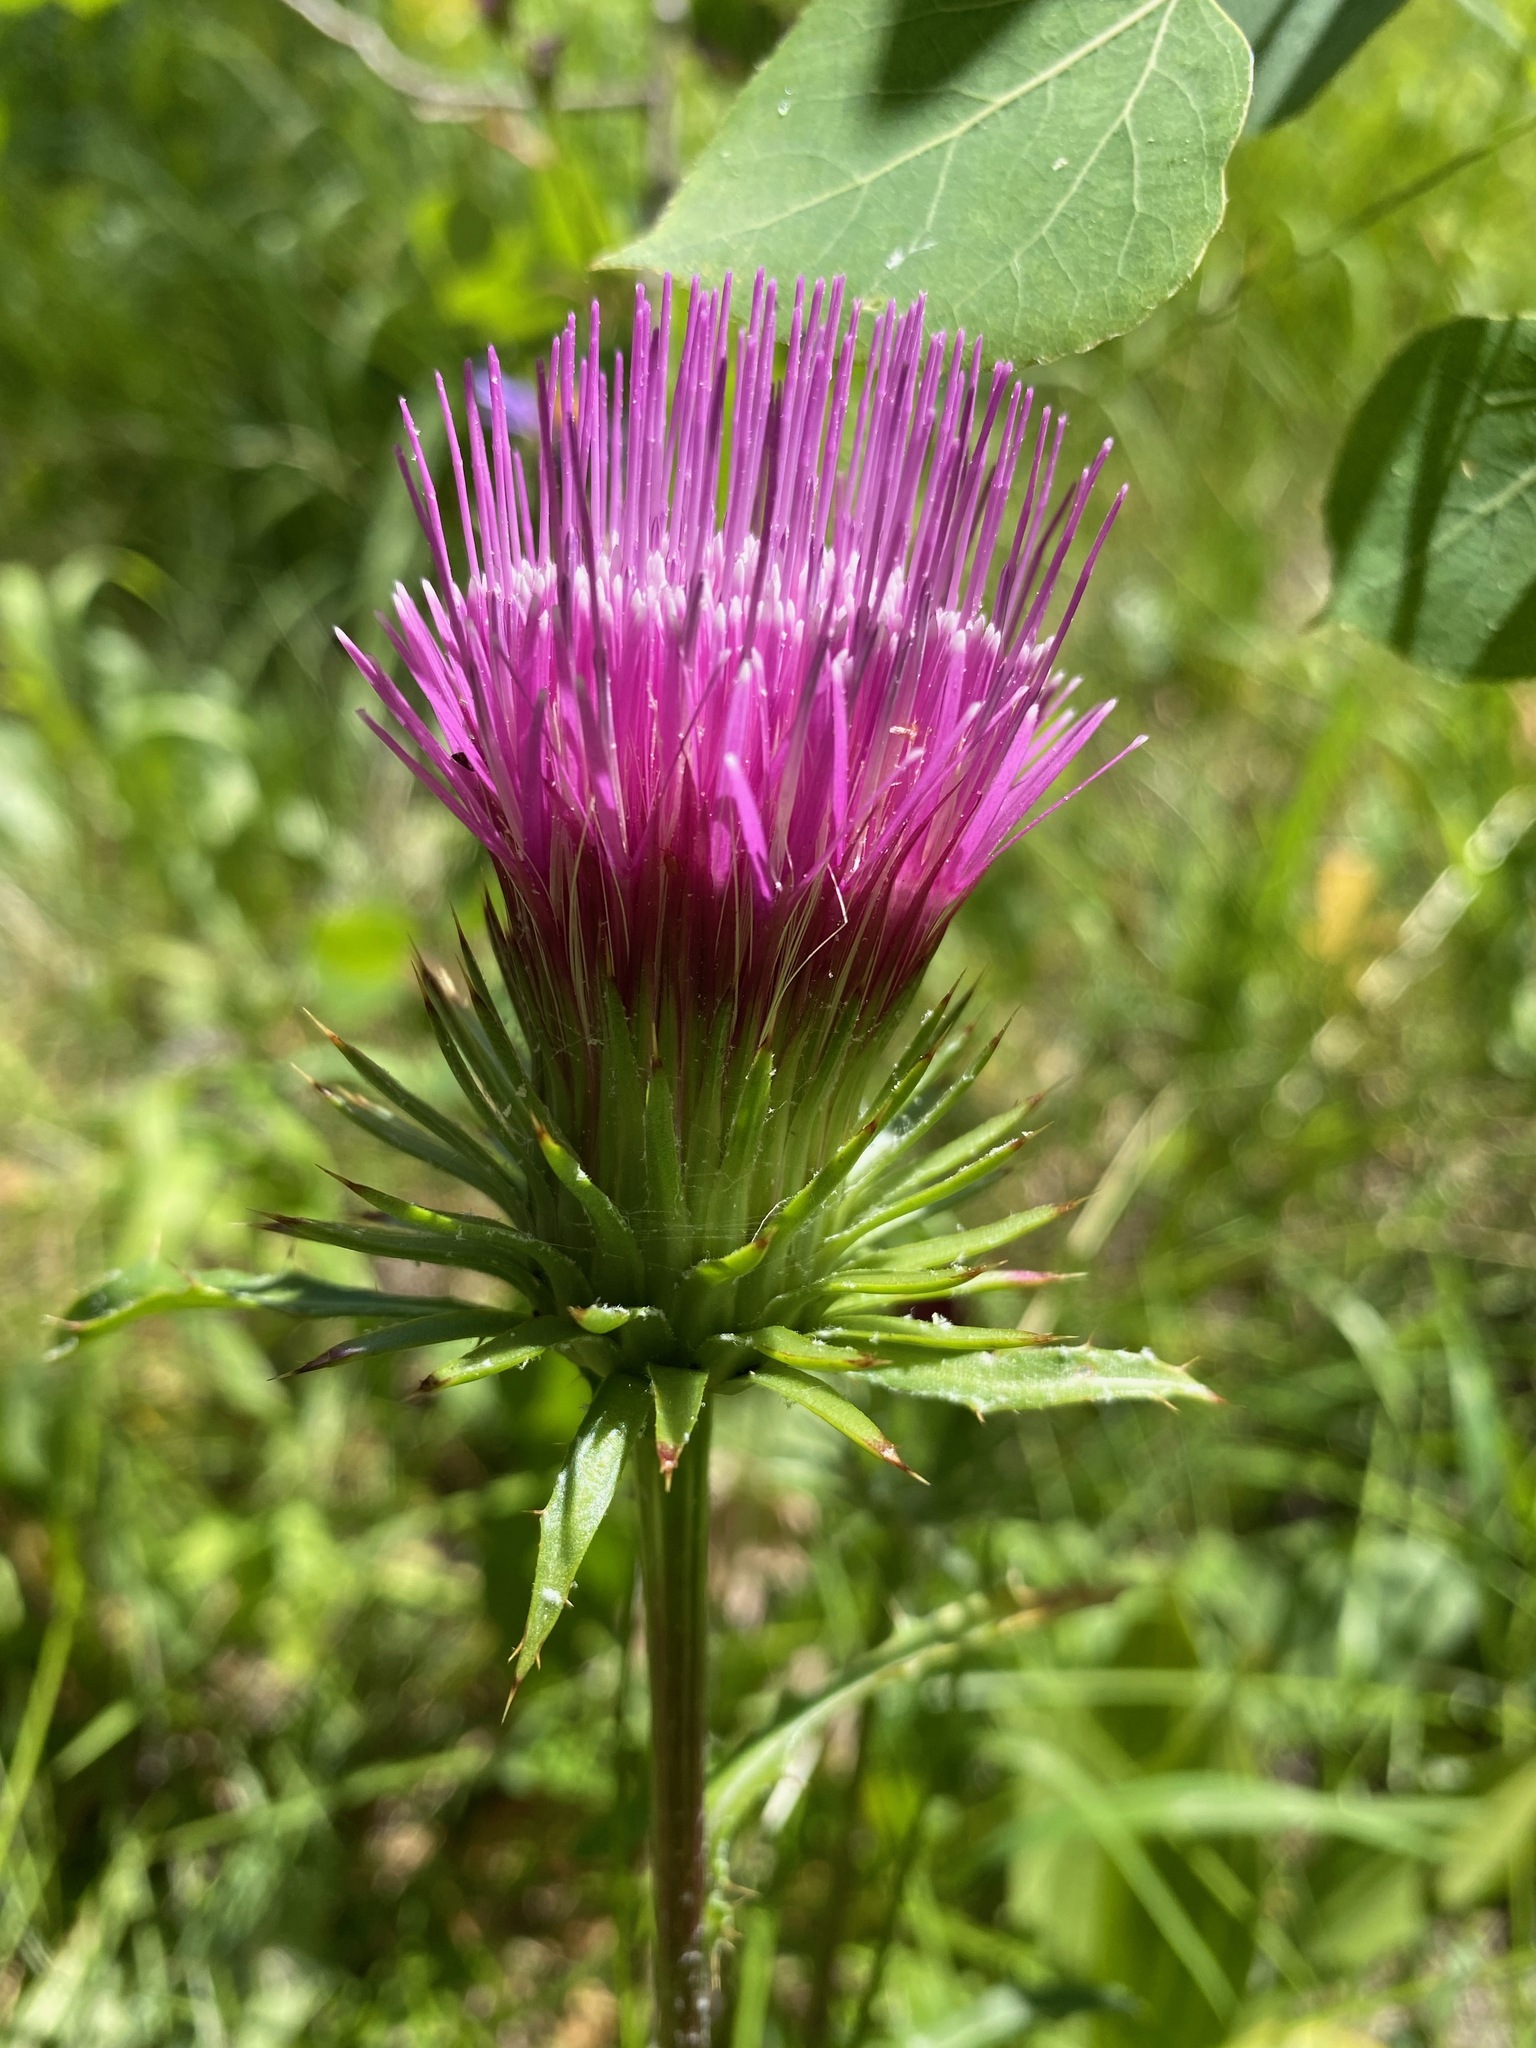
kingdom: Plantae
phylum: Tracheophyta
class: Magnoliopsida
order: Asterales
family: Asteraceae
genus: Cirsium
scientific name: Cirsium andersonii
